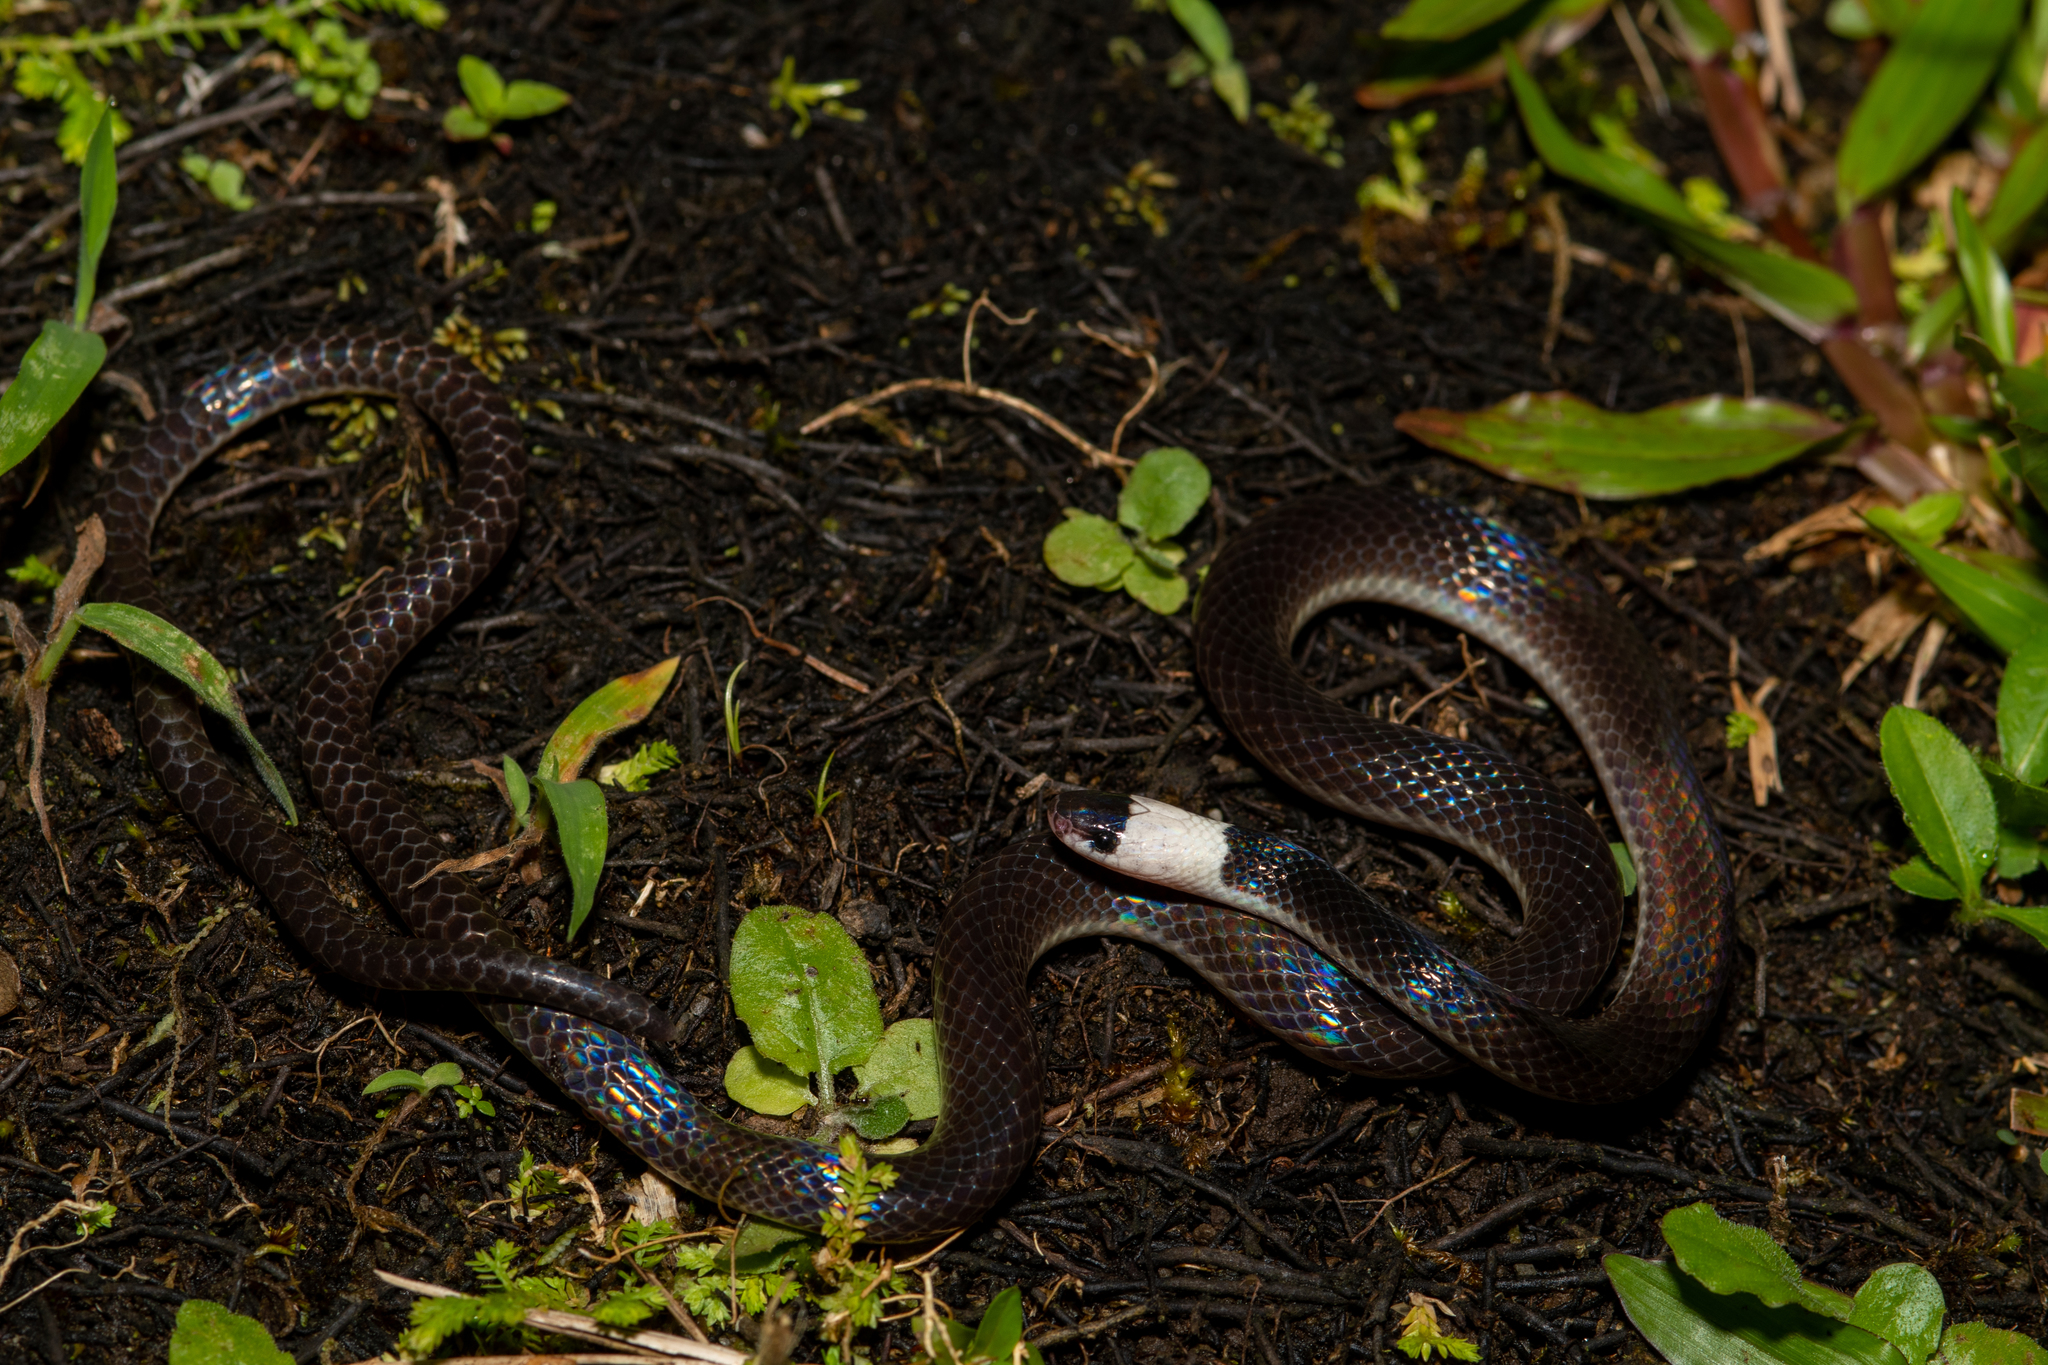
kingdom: Animalia
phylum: Chordata
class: Squamata
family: Colubridae
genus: Enuliophis
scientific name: Enuliophis sclateri
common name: Colombian longtail snake
